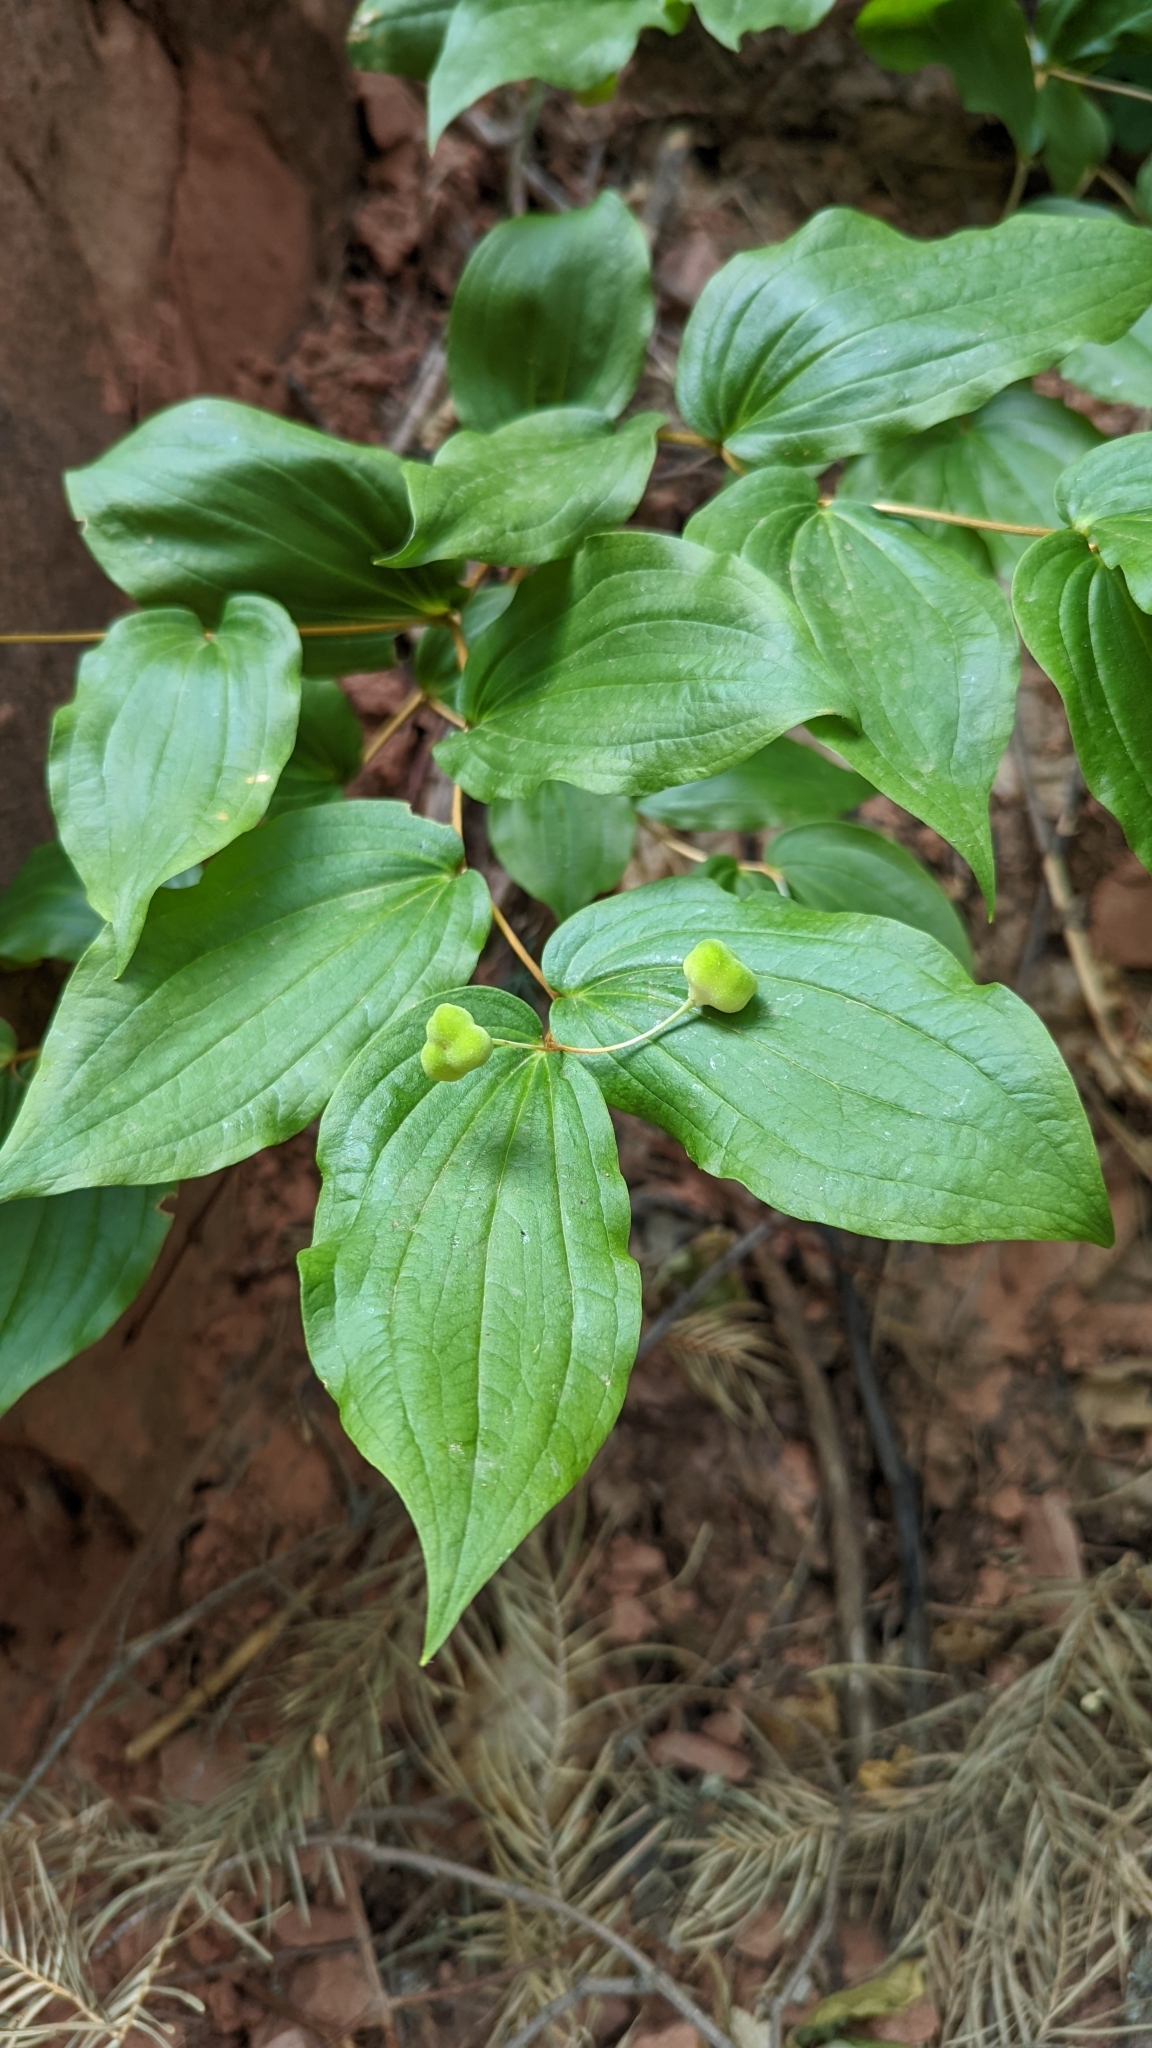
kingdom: Plantae
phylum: Tracheophyta
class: Liliopsida
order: Liliales
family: Liliaceae
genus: Prosartes
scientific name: Prosartes trachycarpa
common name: Rough-fruit fairy-bells
